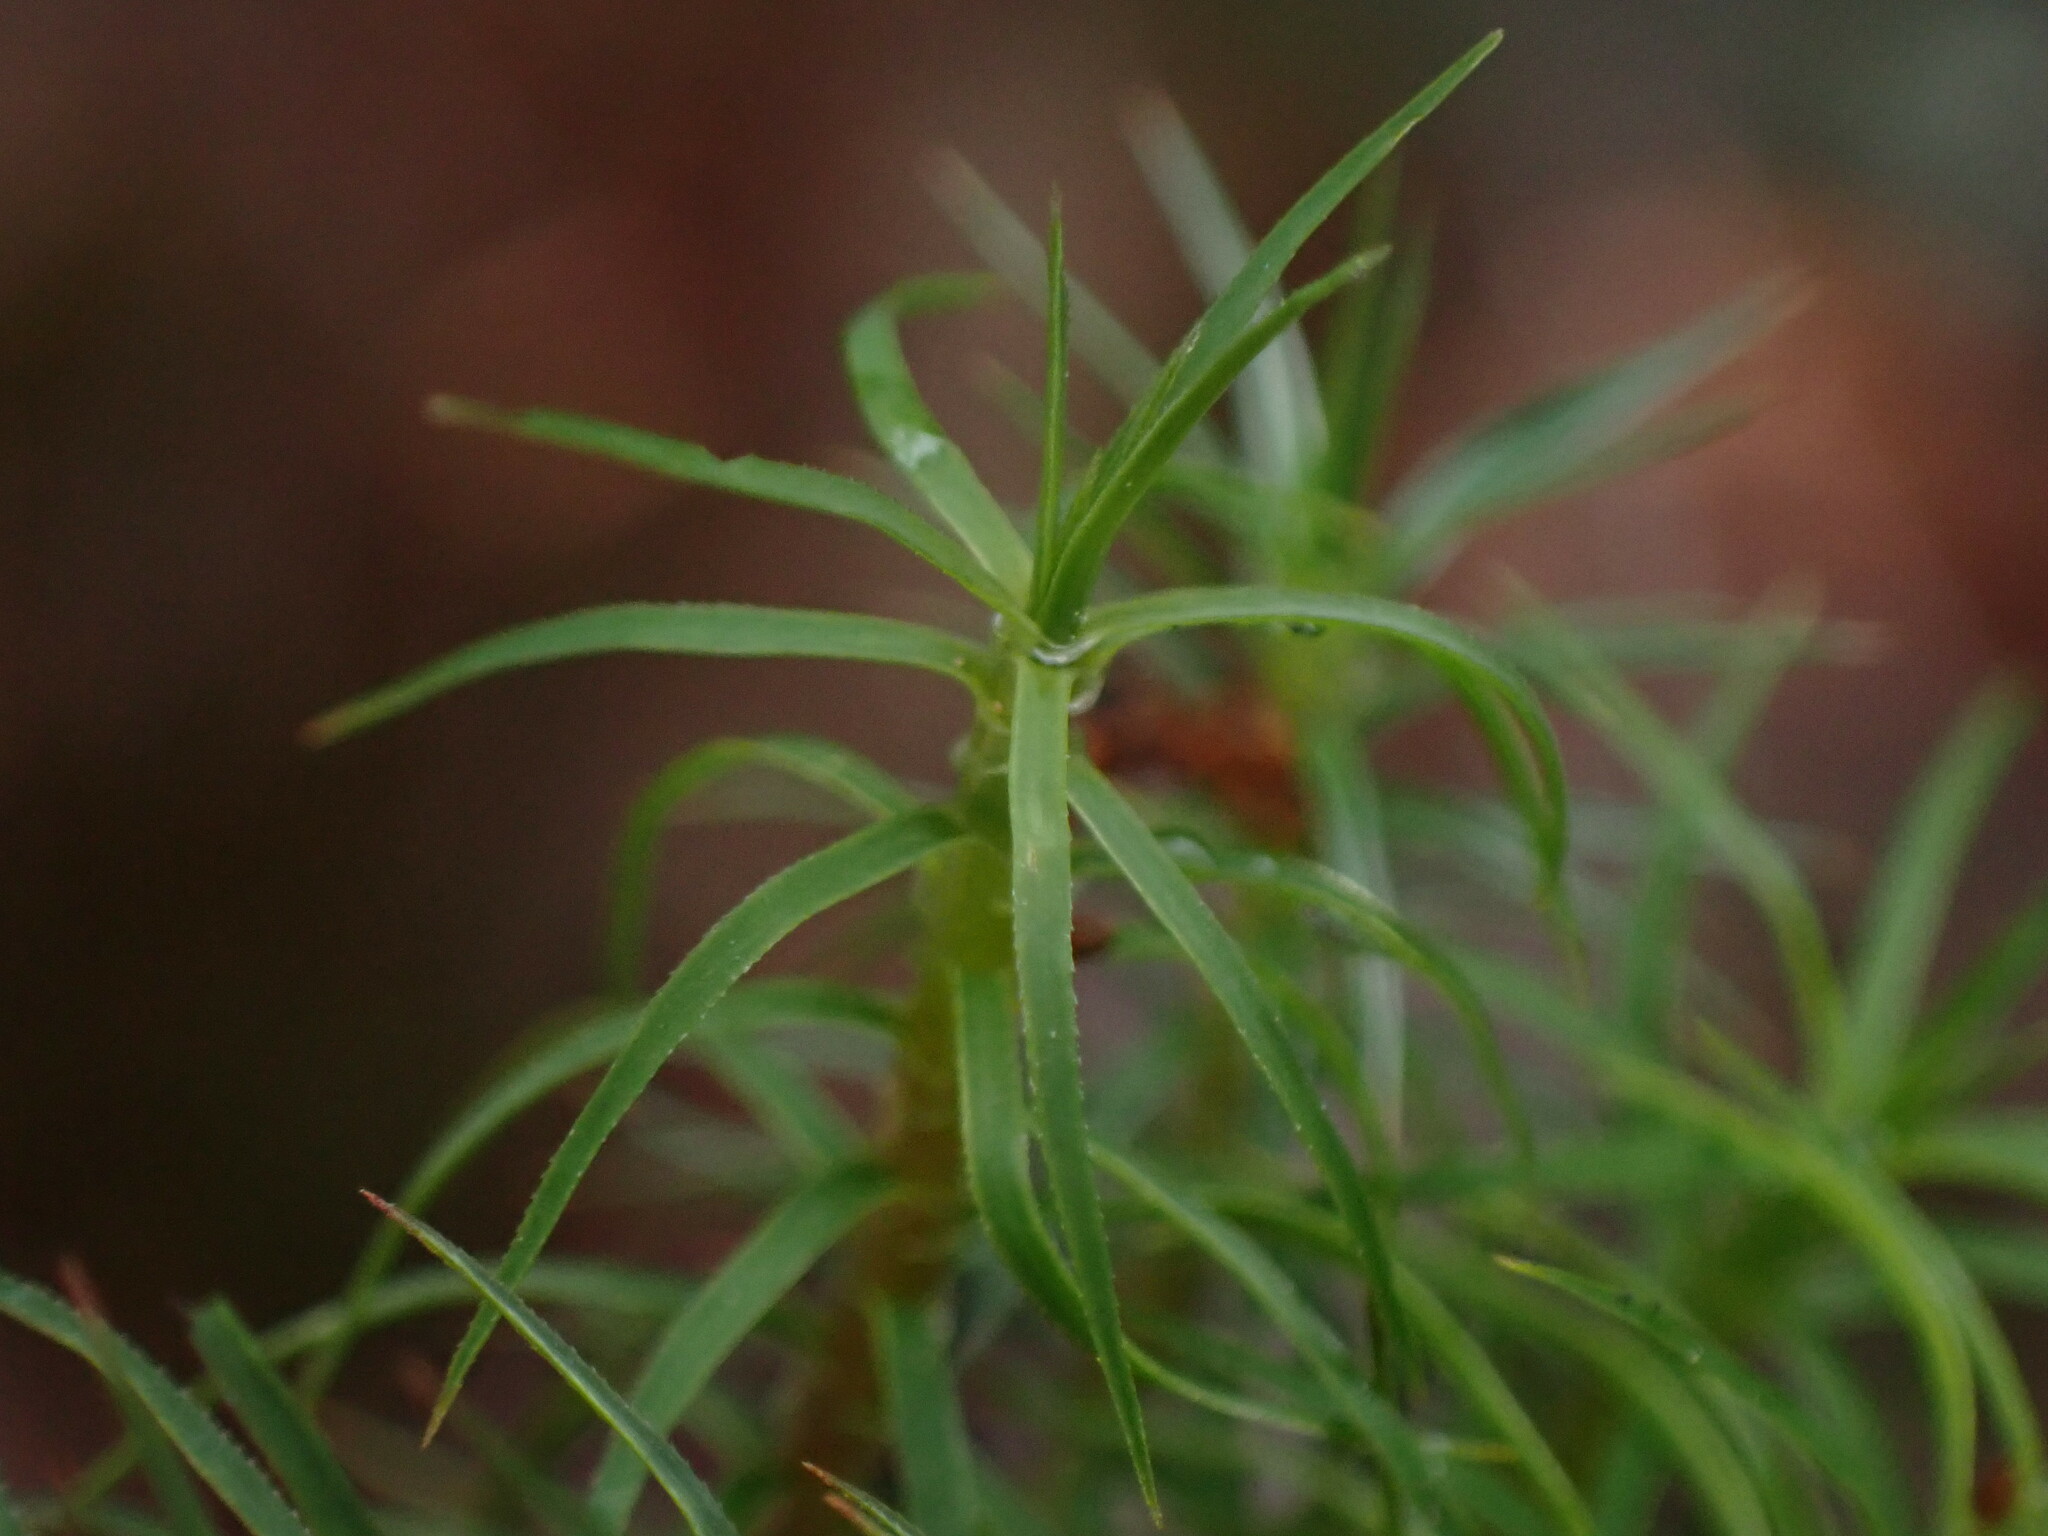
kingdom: Plantae
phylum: Bryophyta
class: Polytrichopsida
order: Polytrichales
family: Polytrichaceae
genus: Polytrichastrum
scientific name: Polytrichastrum alpinum
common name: Alpine haircap
